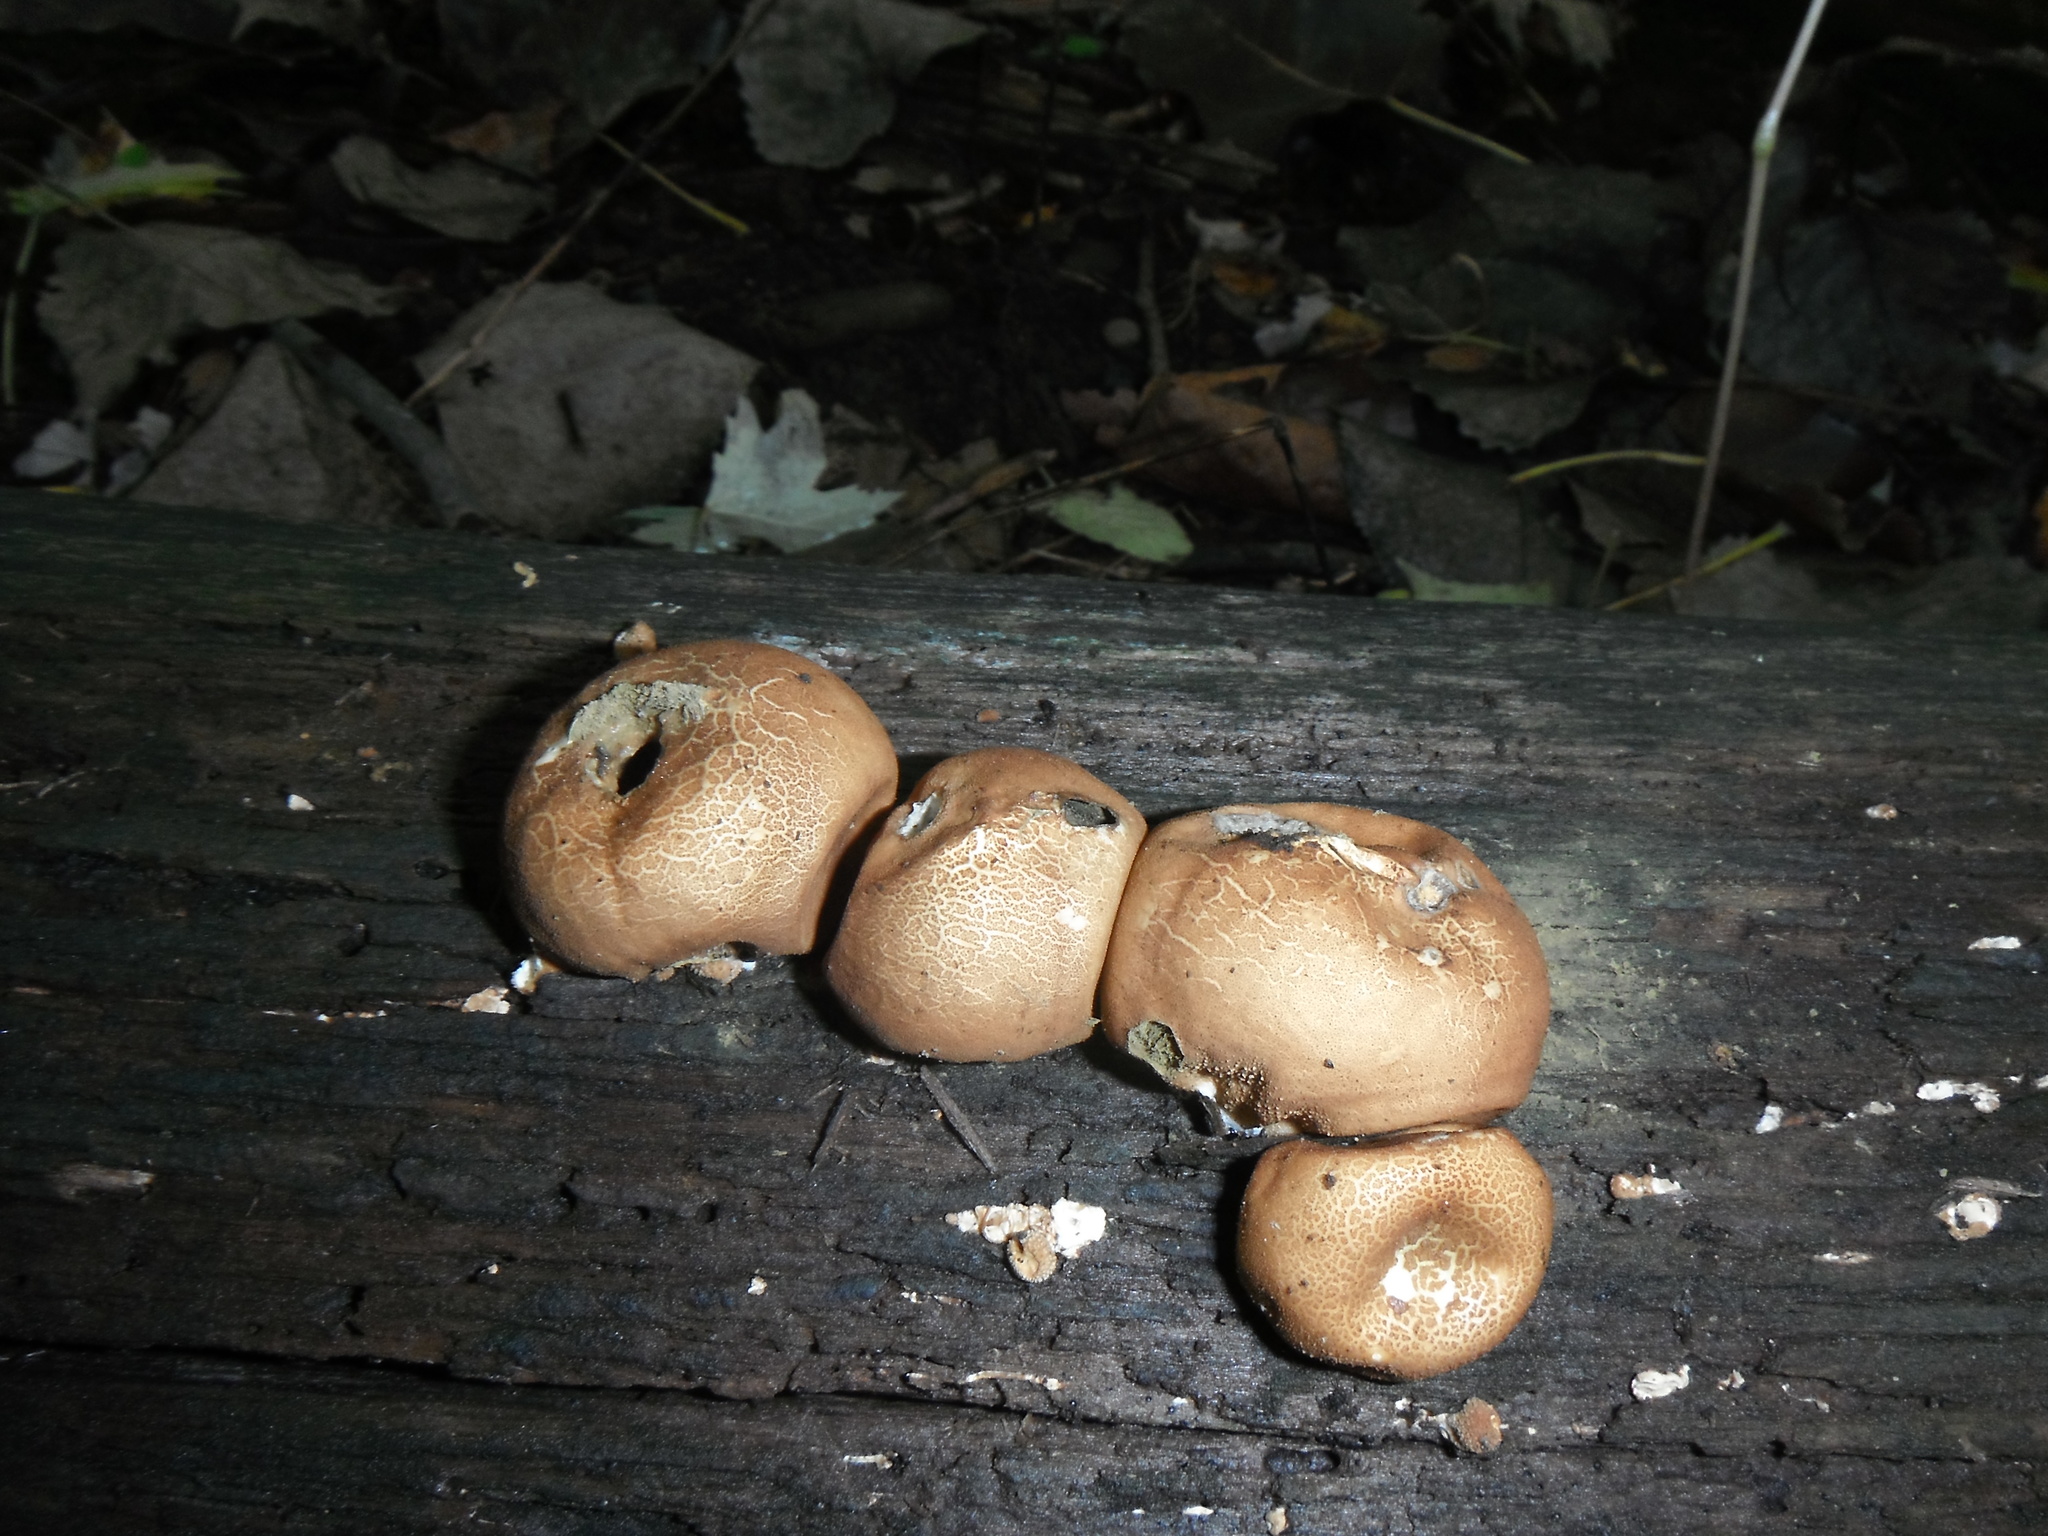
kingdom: Fungi
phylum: Basidiomycota
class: Agaricomycetes
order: Agaricales
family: Lycoperdaceae
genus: Apioperdon
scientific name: Apioperdon pyriforme
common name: Pear-shaped puffball
